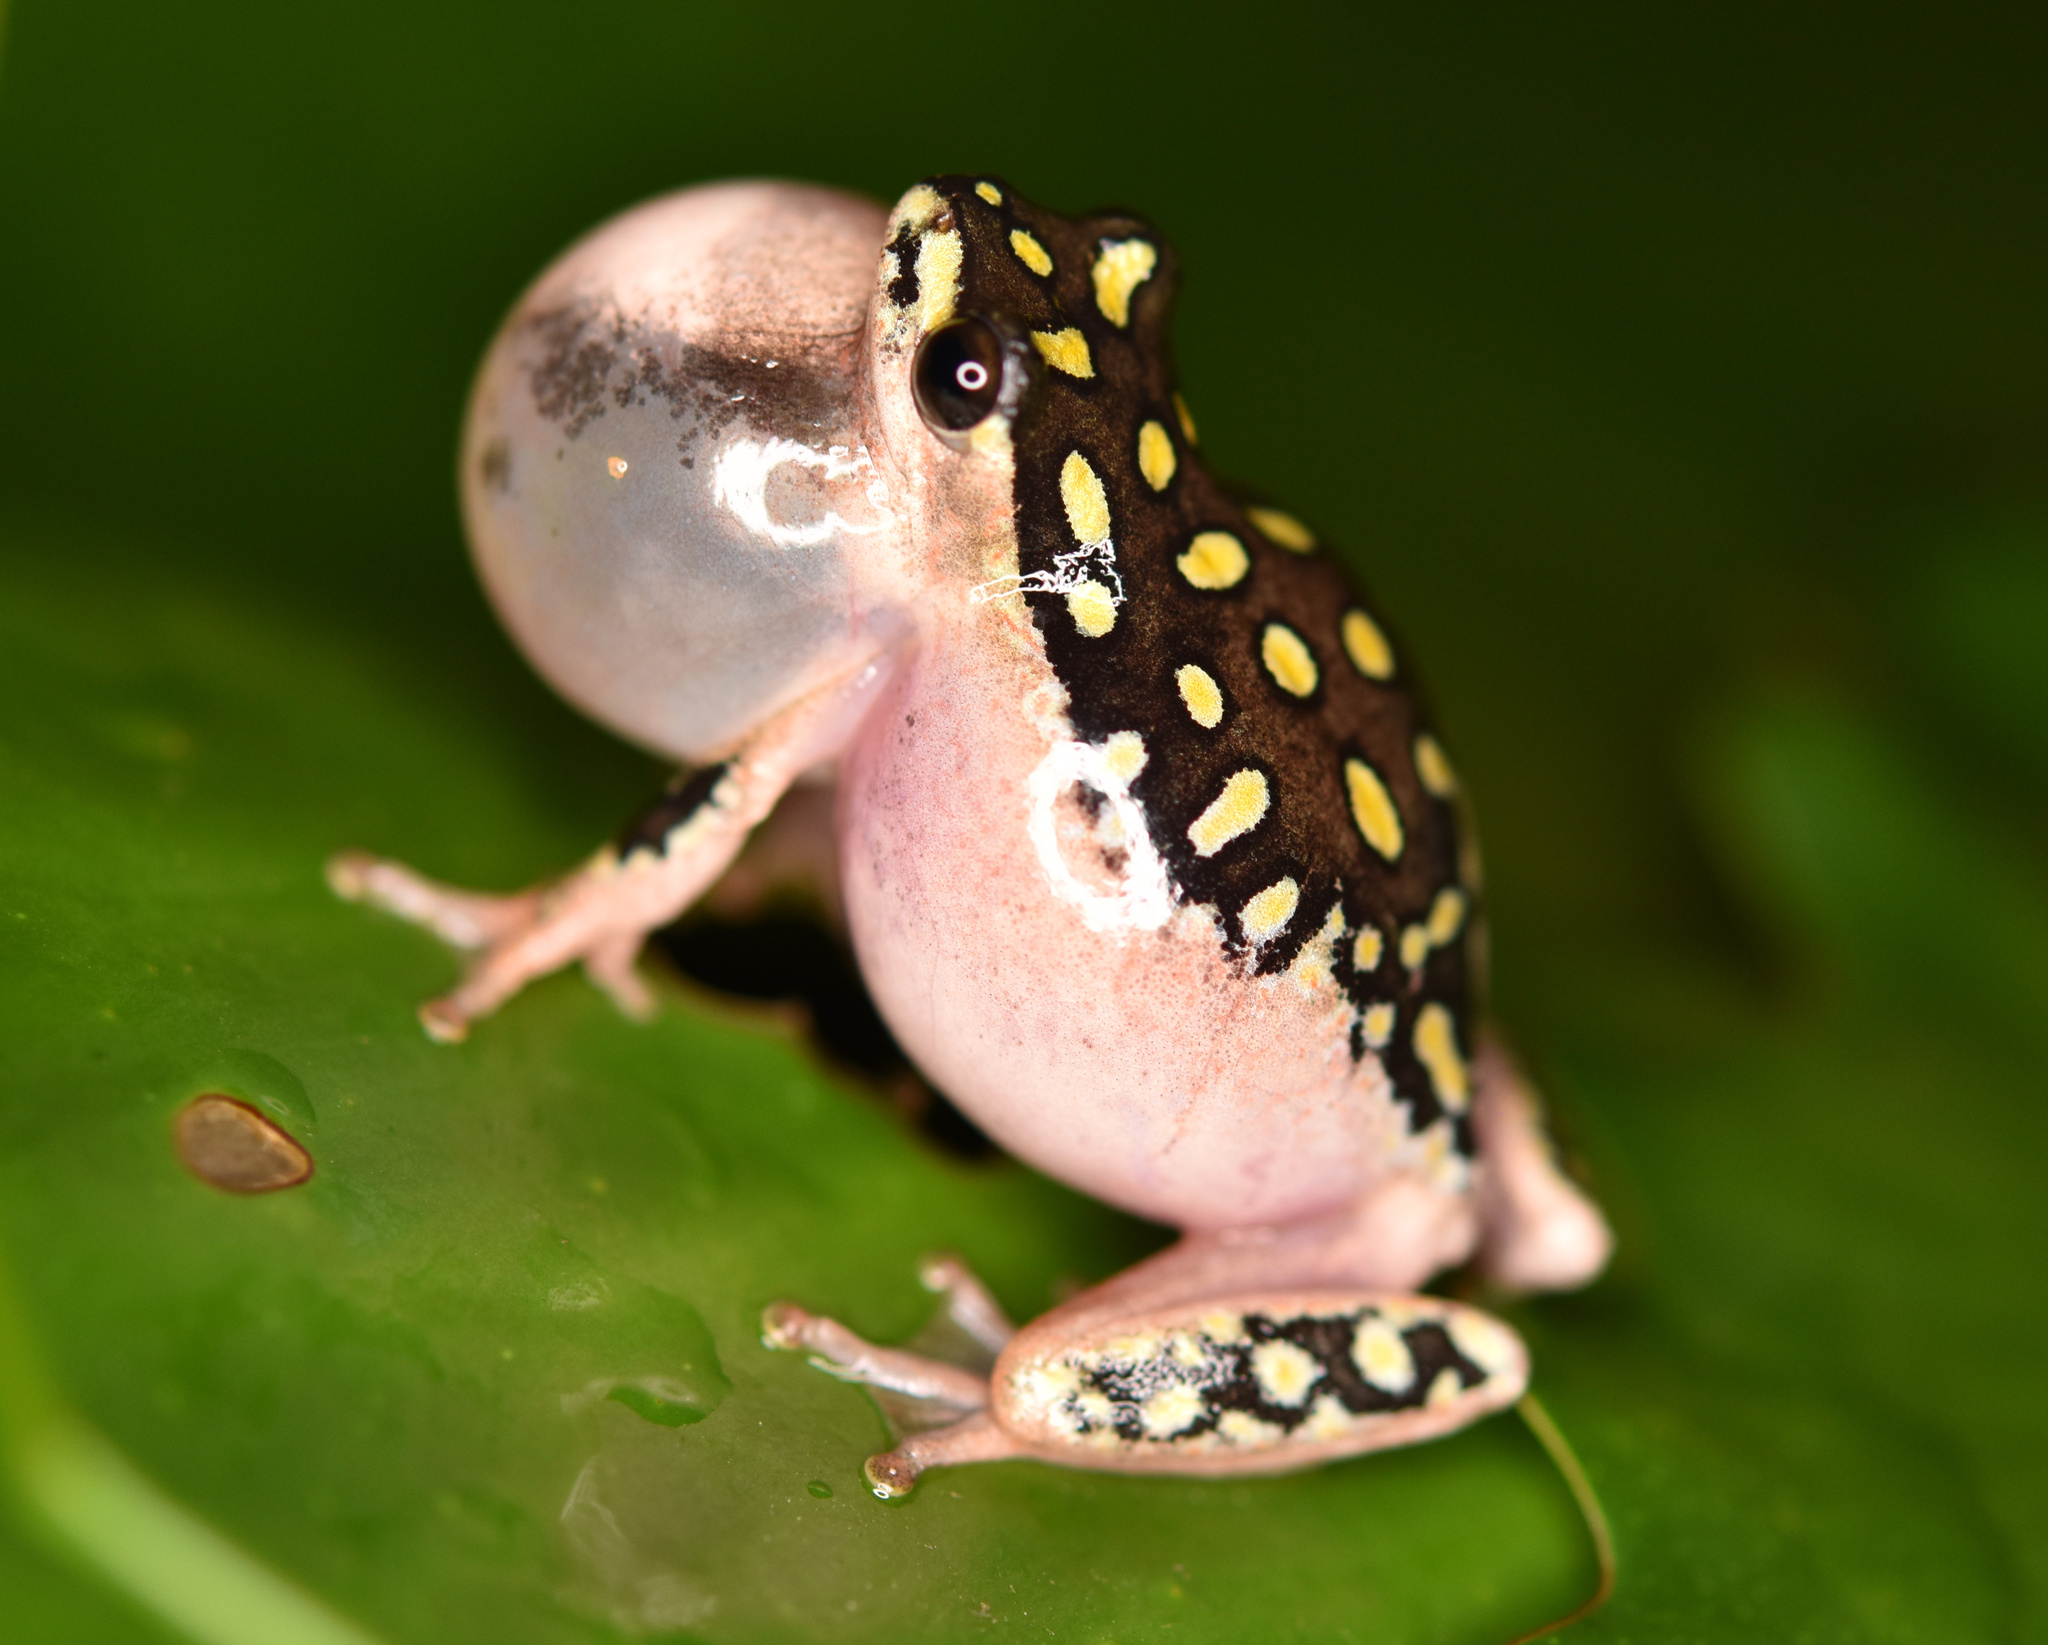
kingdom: Animalia
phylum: Chordata
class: Amphibia
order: Anura
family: Hyperoliidae
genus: Hyperolius
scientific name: Hyperolius marmoratus
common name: Painted reed frog
